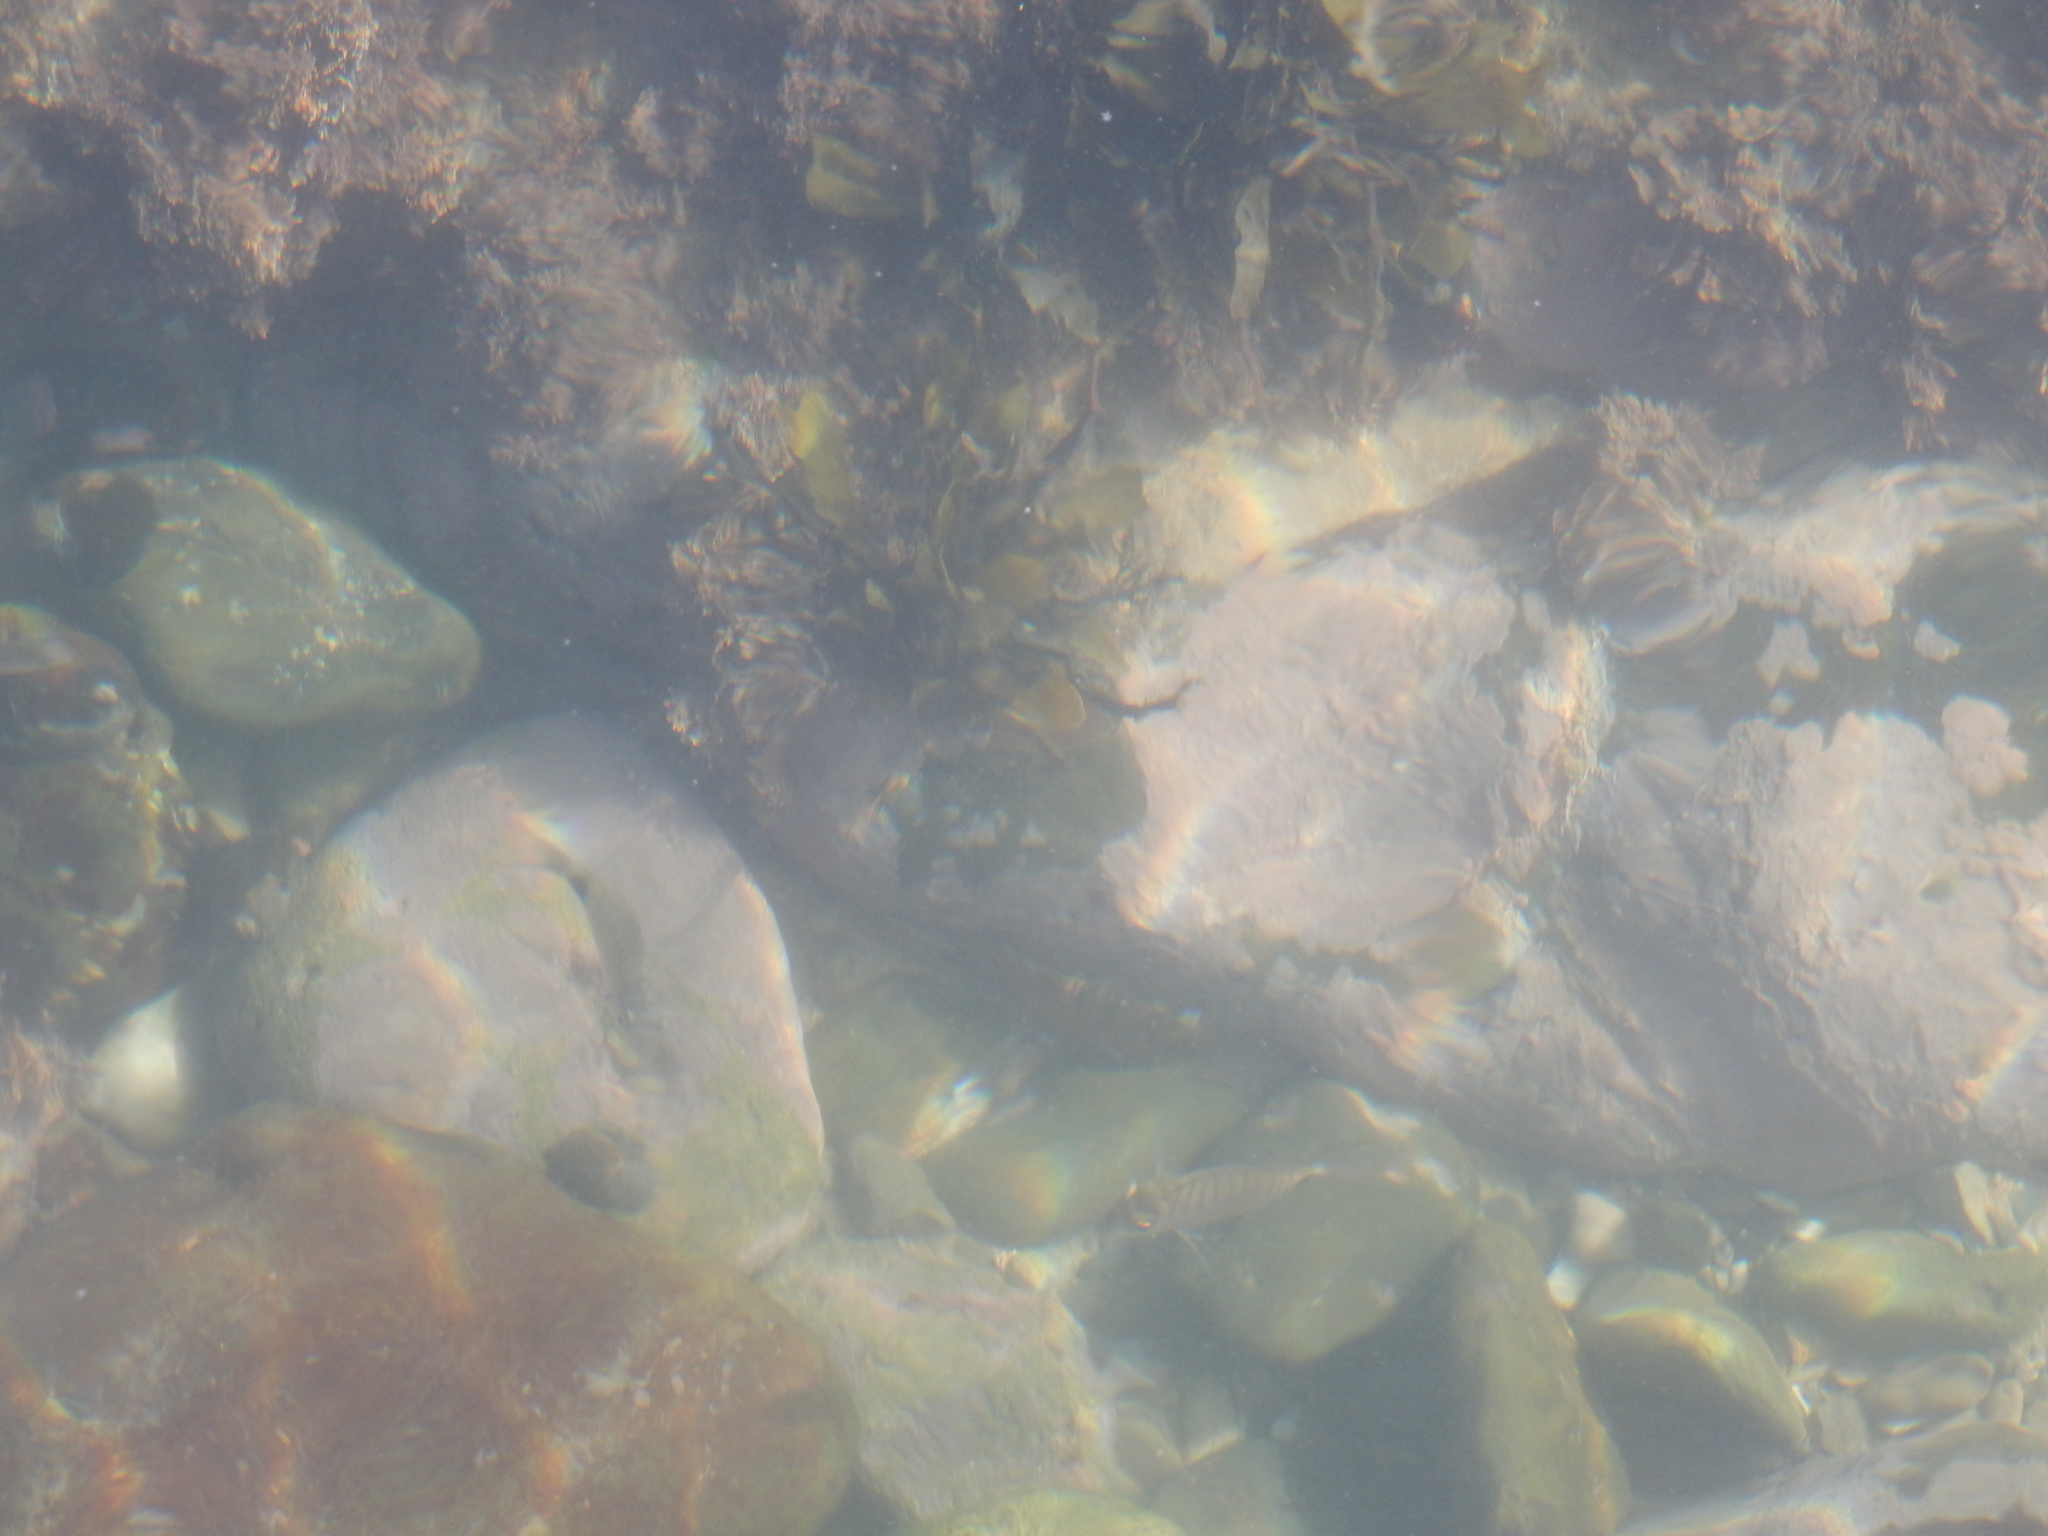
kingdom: Animalia
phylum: Chordata
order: Perciformes
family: Sparidae
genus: Diplodus
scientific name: Diplodus capensis
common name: Blacktail
